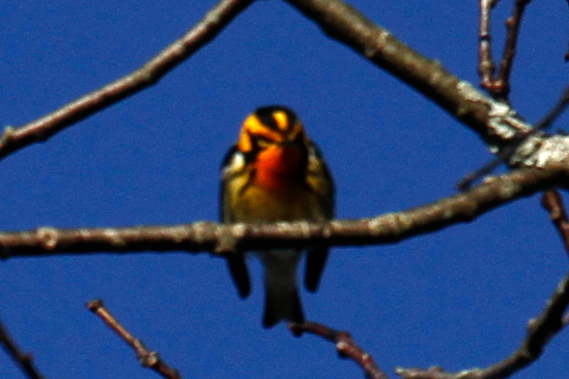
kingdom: Animalia
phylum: Chordata
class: Aves
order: Passeriformes
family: Parulidae
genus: Setophaga
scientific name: Setophaga fusca
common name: Blackburnian warbler
